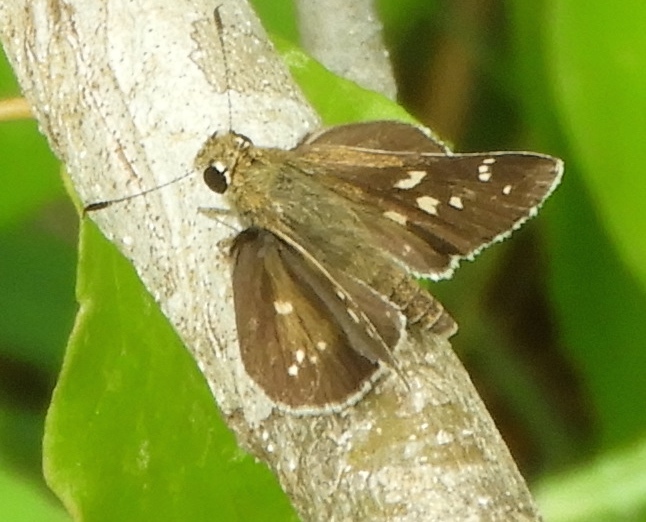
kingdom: Animalia
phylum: Arthropoda
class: Insecta
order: Lepidoptera
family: Hesperiidae
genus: Mastor
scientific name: Mastor tolteca
